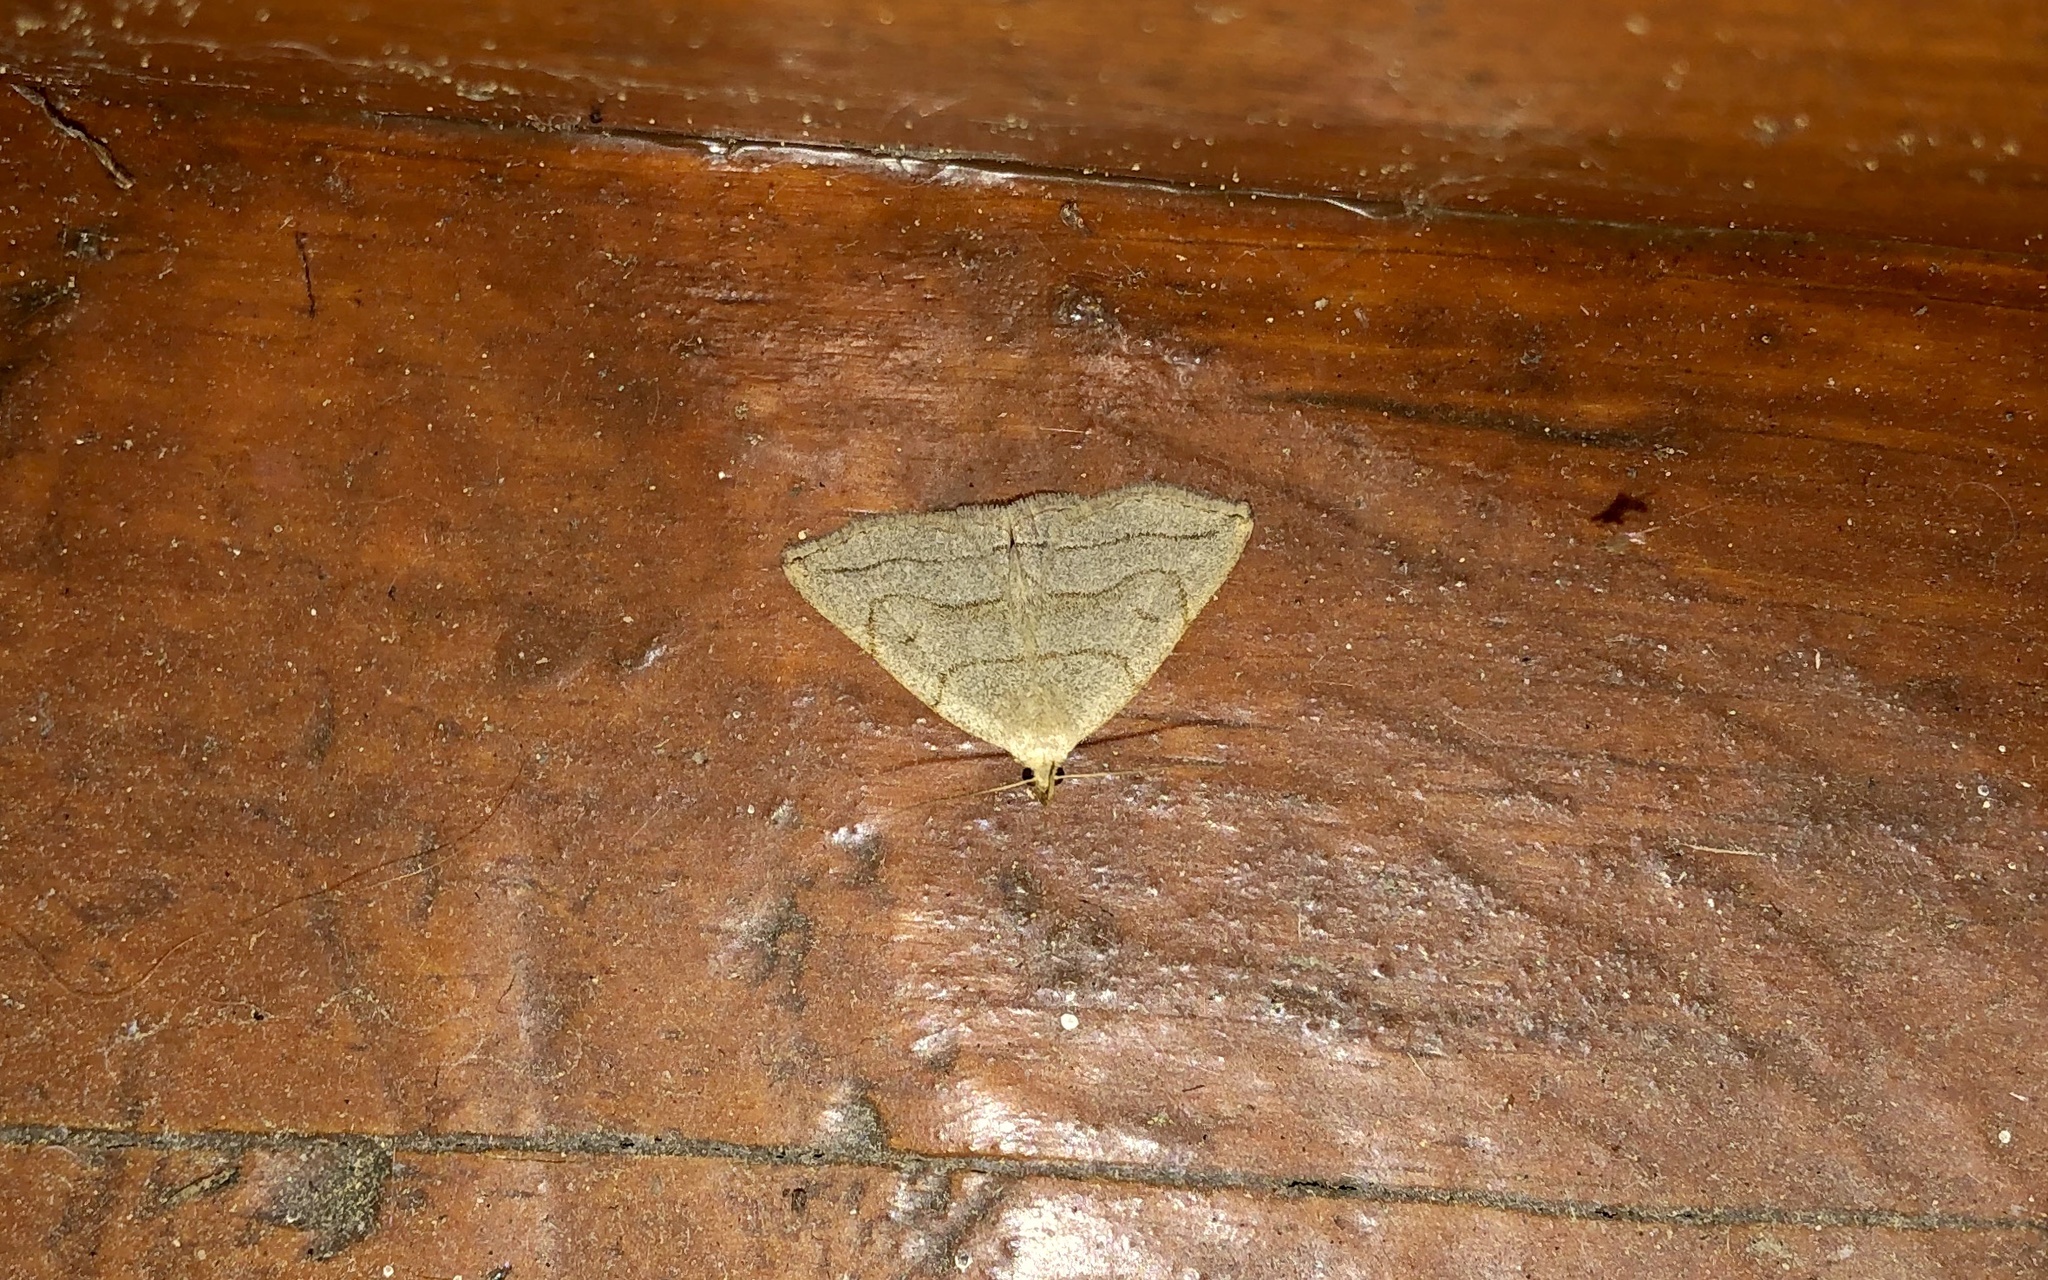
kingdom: Animalia
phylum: Arthropoda
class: Insecta
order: Lepidoptera
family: Erebidae
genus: Zanclognatha
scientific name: Zanclognatha pedipilalis
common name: Grayish fan-foot
